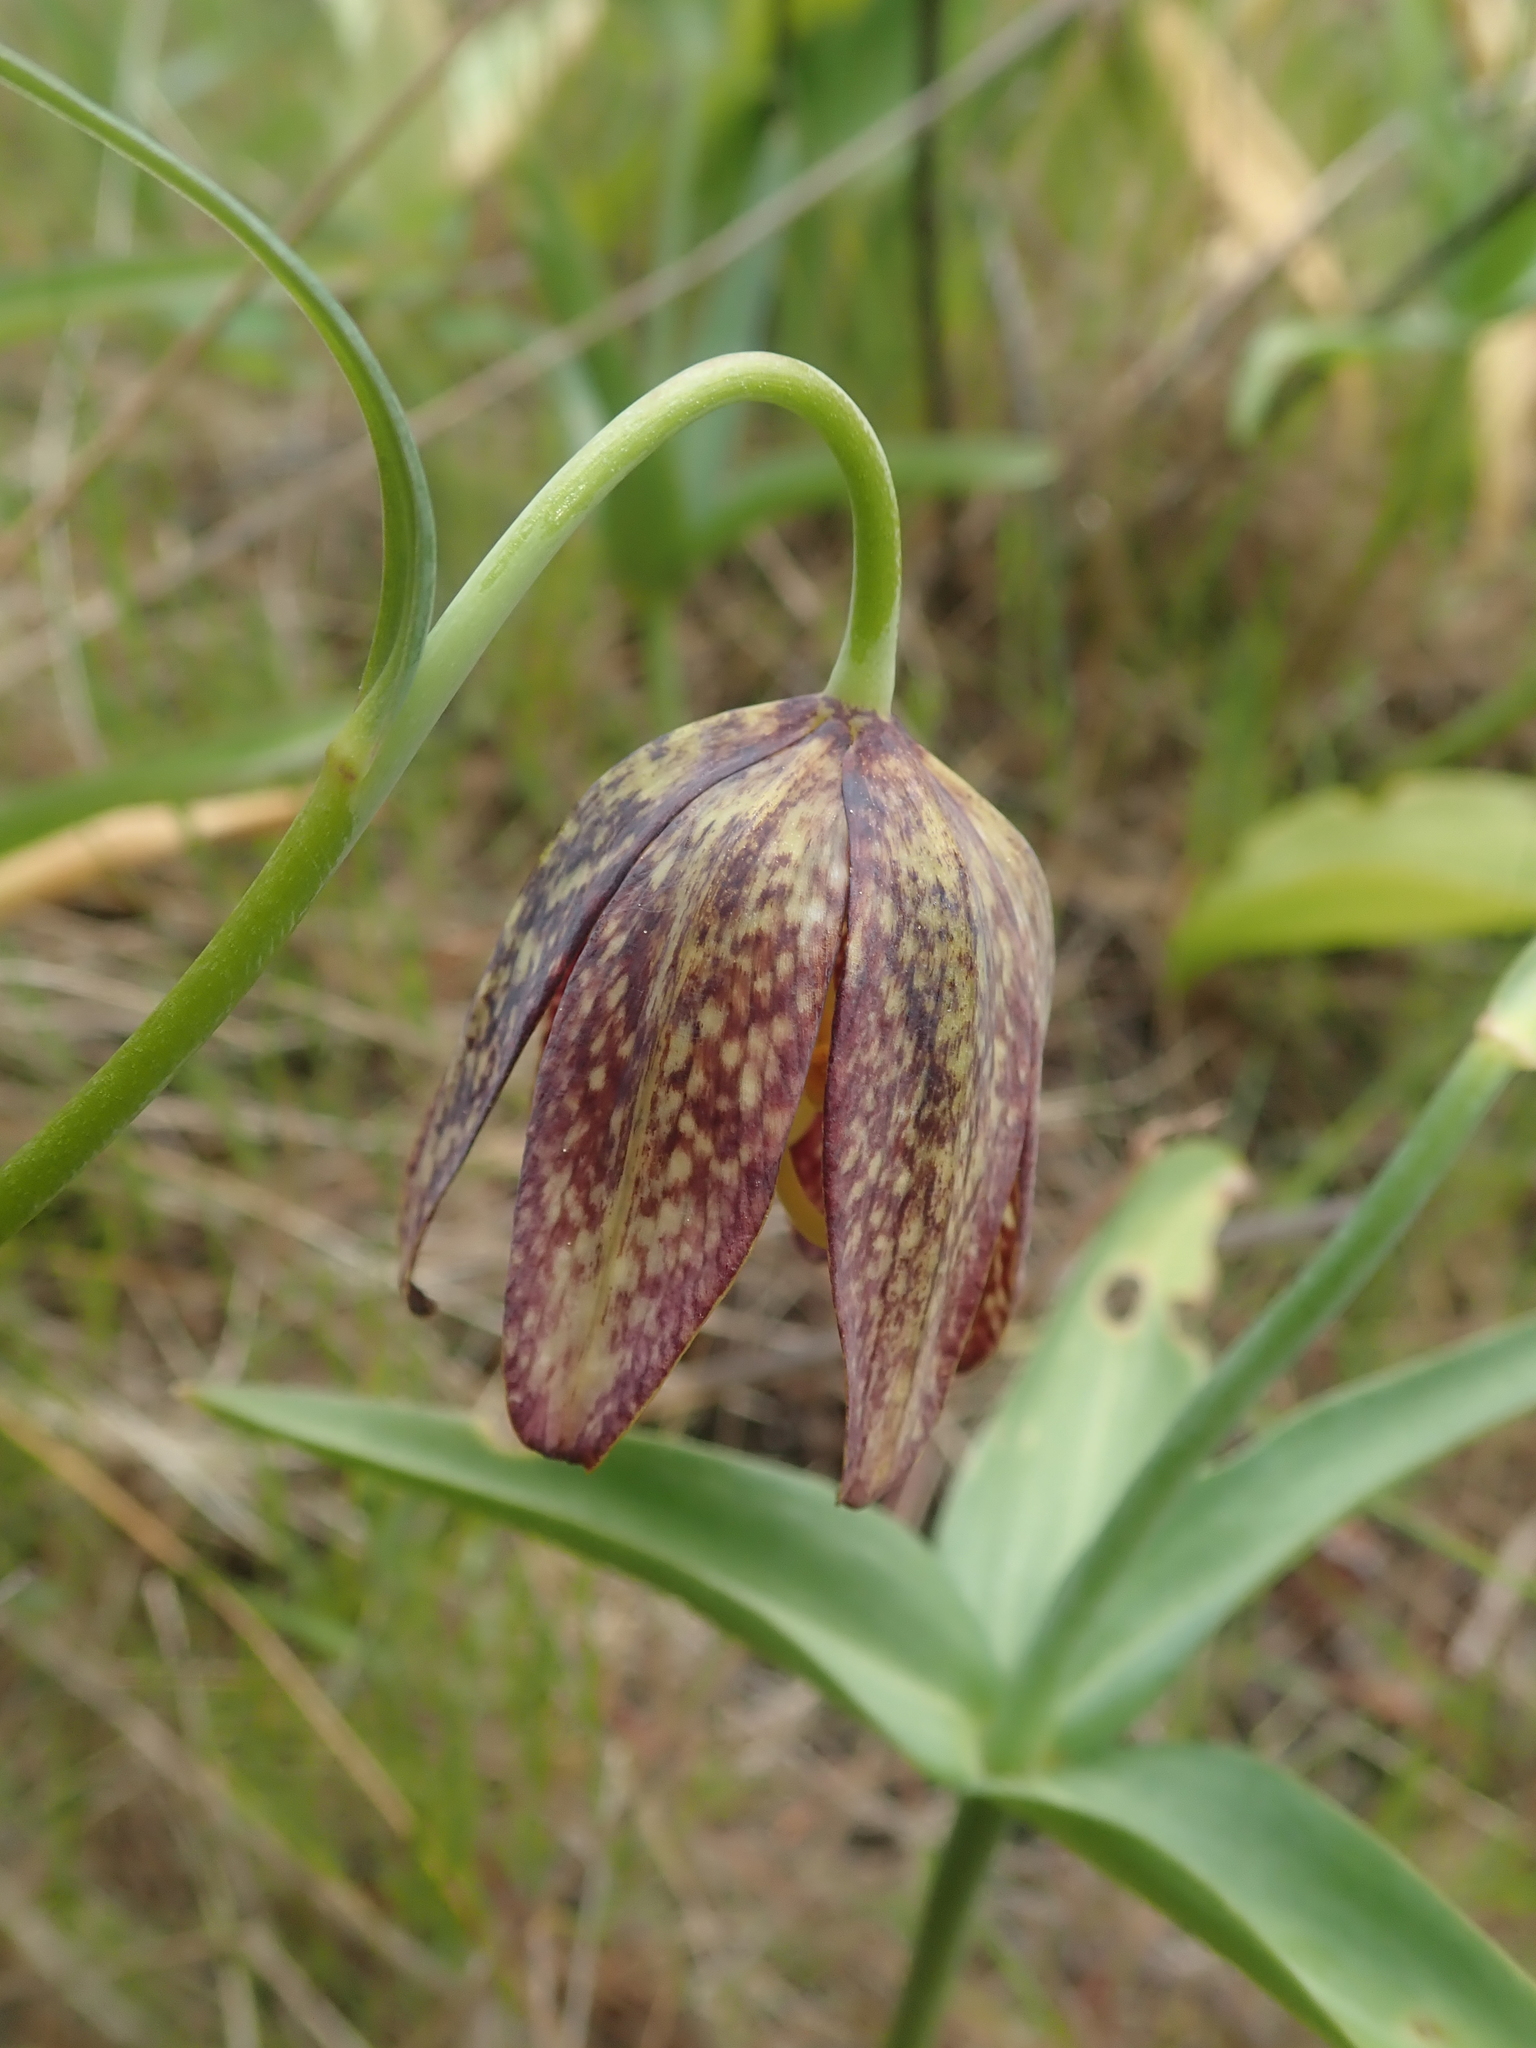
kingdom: Plantae
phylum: Tracheophyta
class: Liliopsida
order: Liliales
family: Liliaceae
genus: Fritillaria
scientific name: Fritillaria affinis
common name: Ojai fritillary
